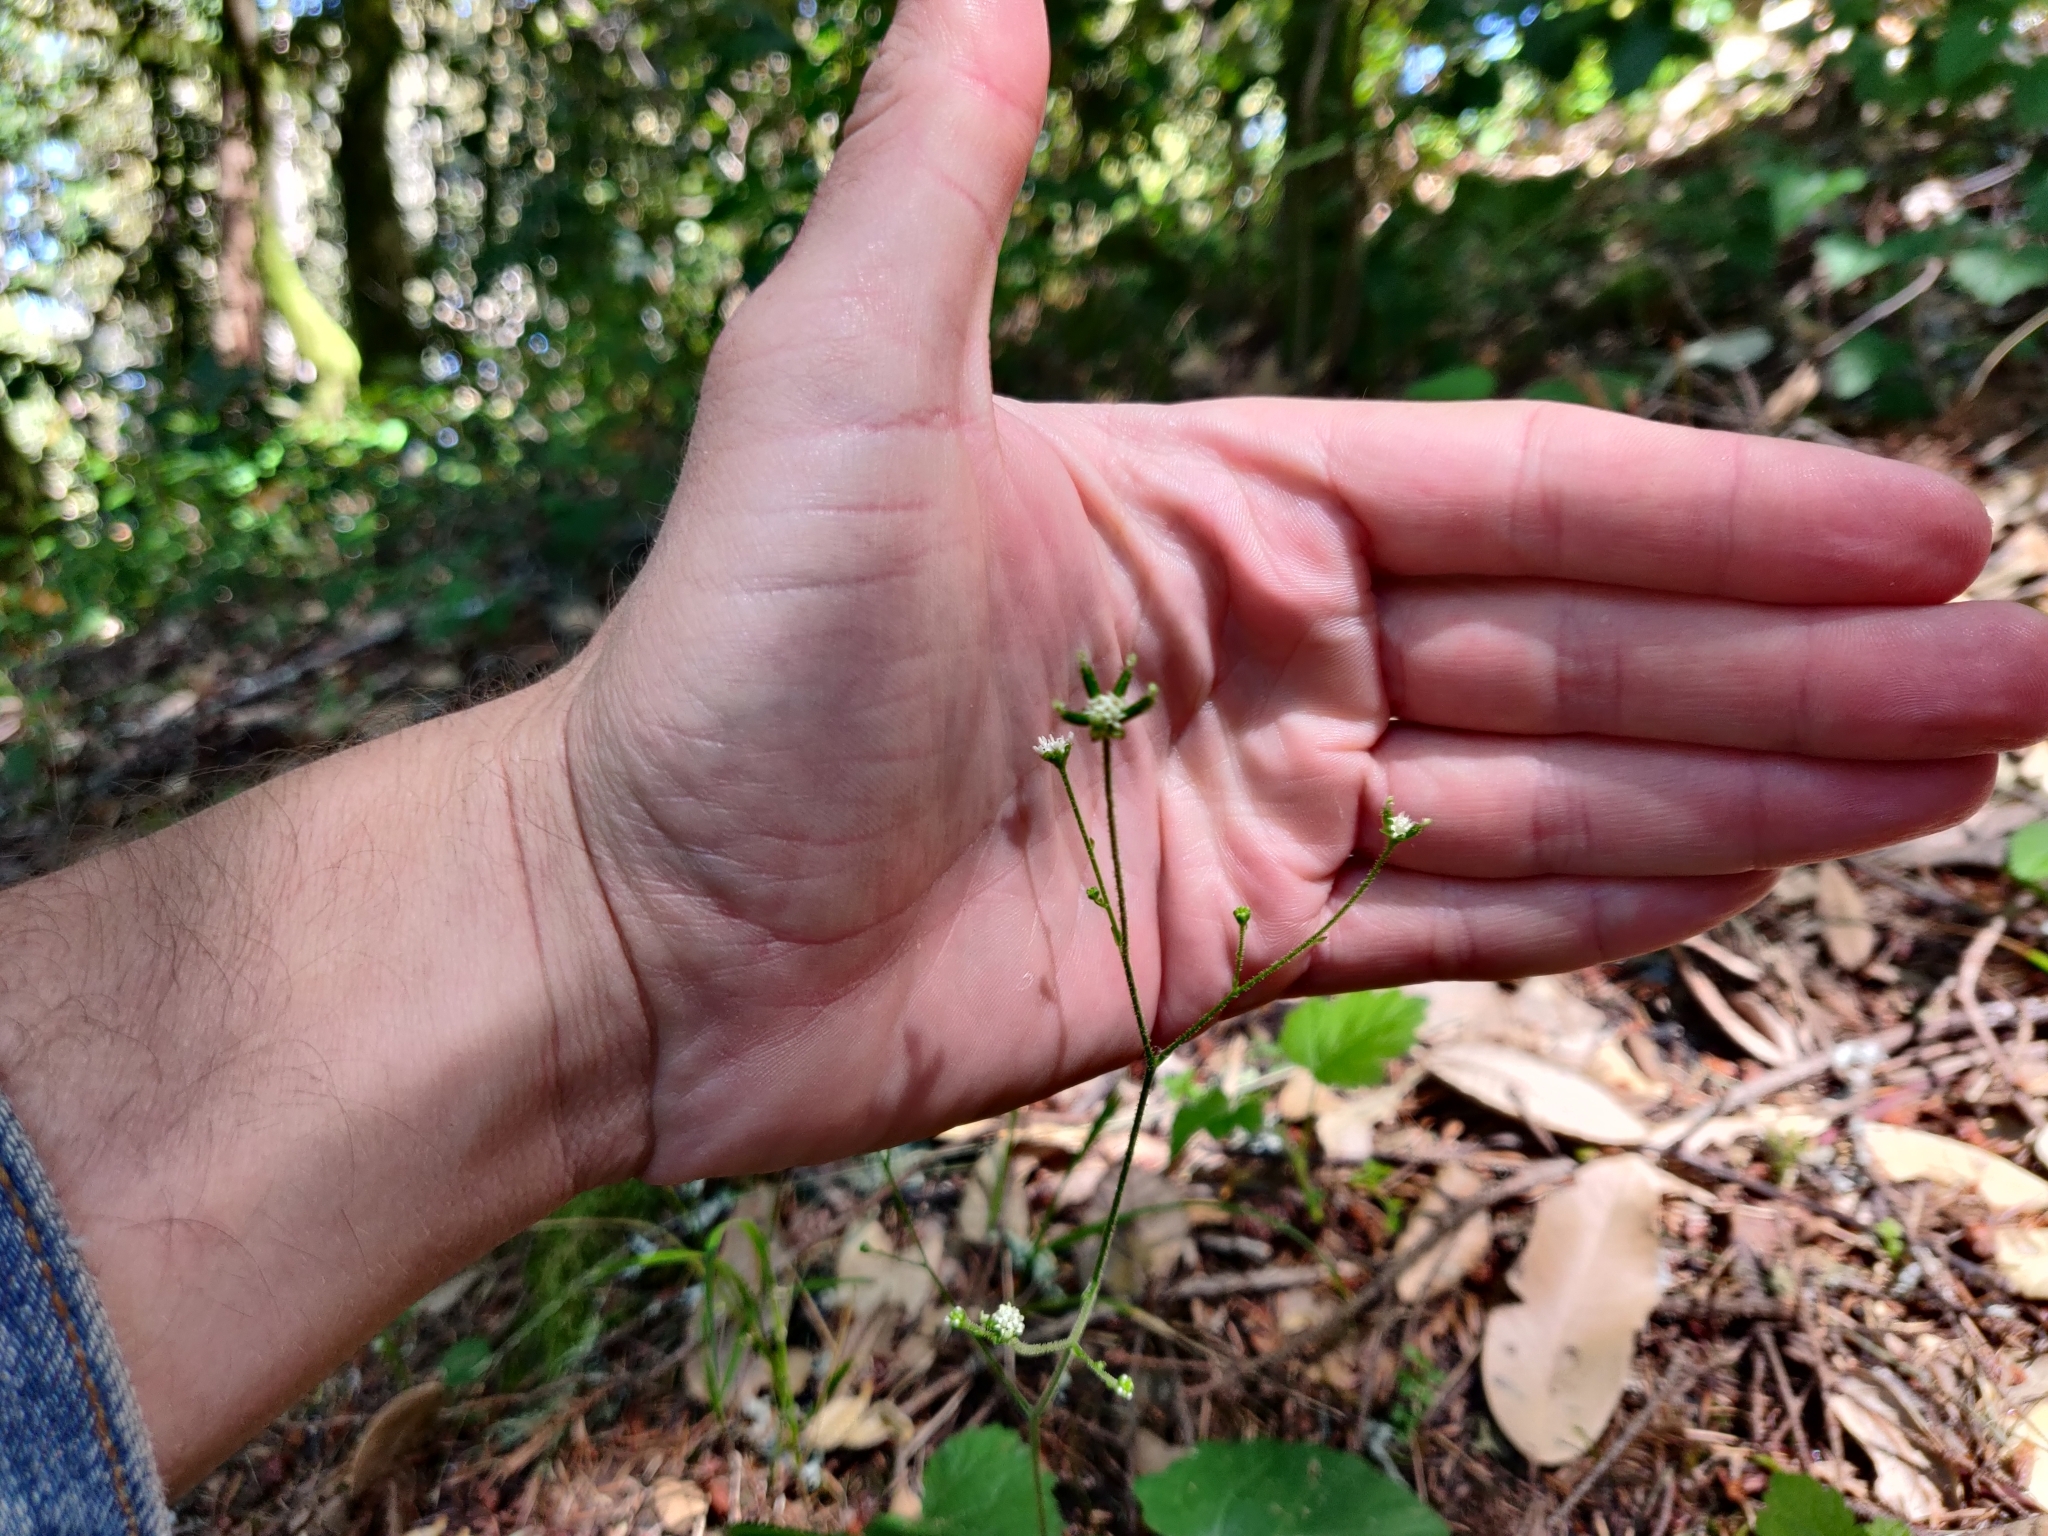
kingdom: Plantae
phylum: Tracheophyta
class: Magnoliopsida
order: Asterales
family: Asteraceae
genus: Adenocaulon
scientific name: Adenocaulon bicolor
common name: Trailplant
